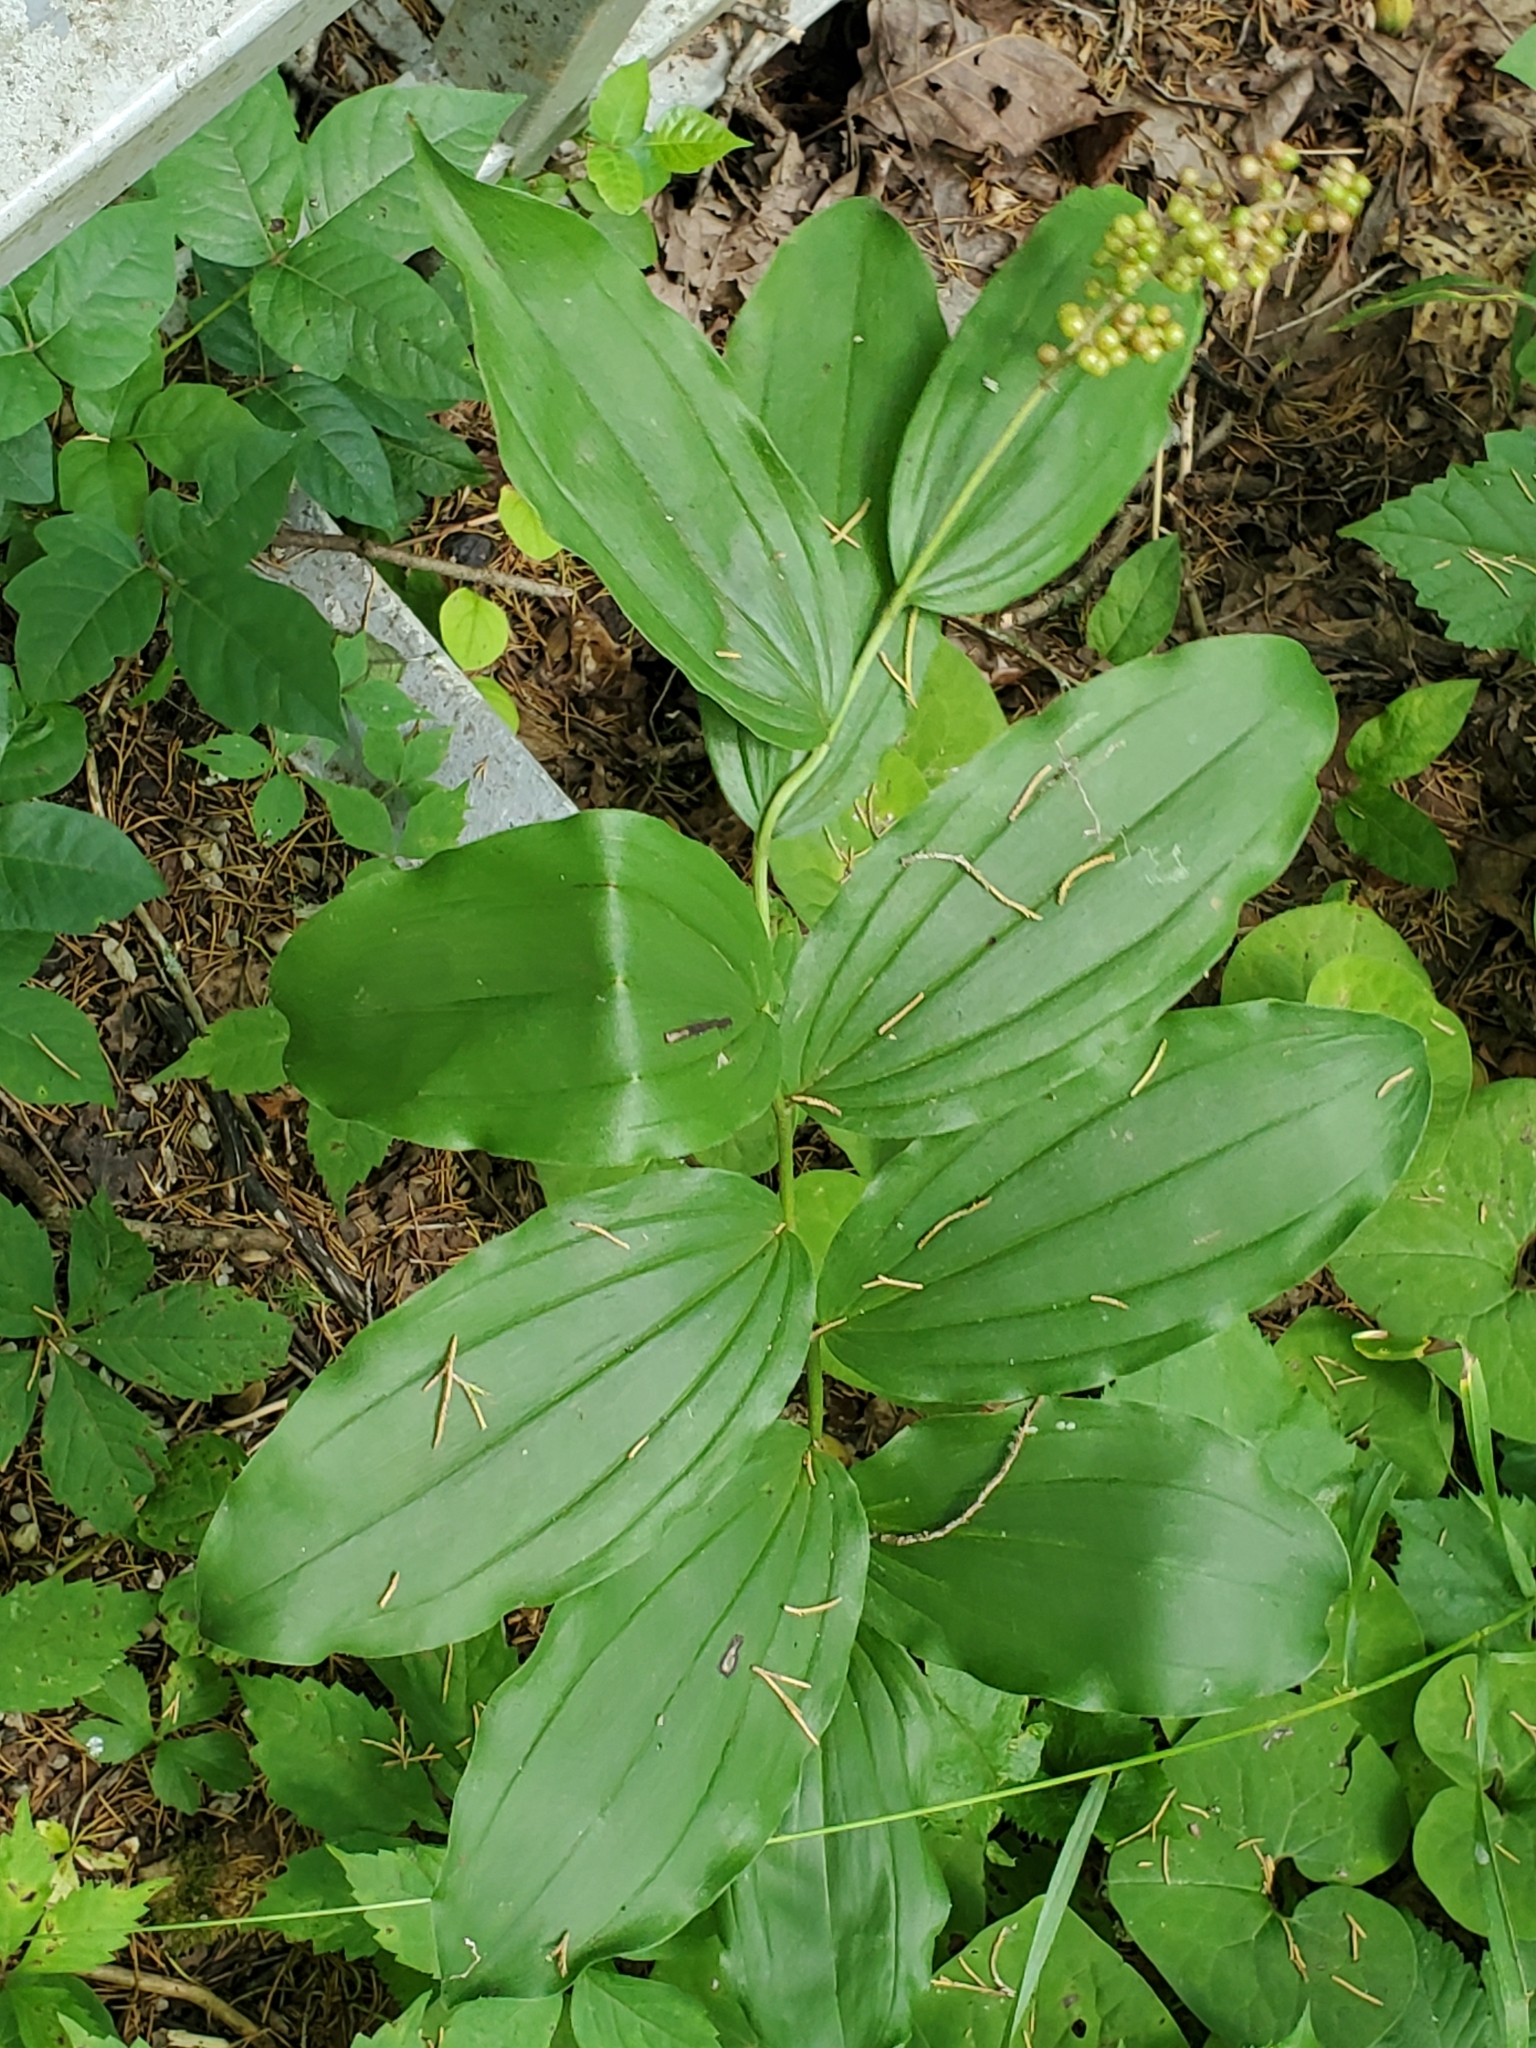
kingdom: Plantae
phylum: Tracheophyta
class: Liliopsida
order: Asparagales
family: Asparagaceae
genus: Maianthemum
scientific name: Maianthemum racemosum
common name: False spikenard
